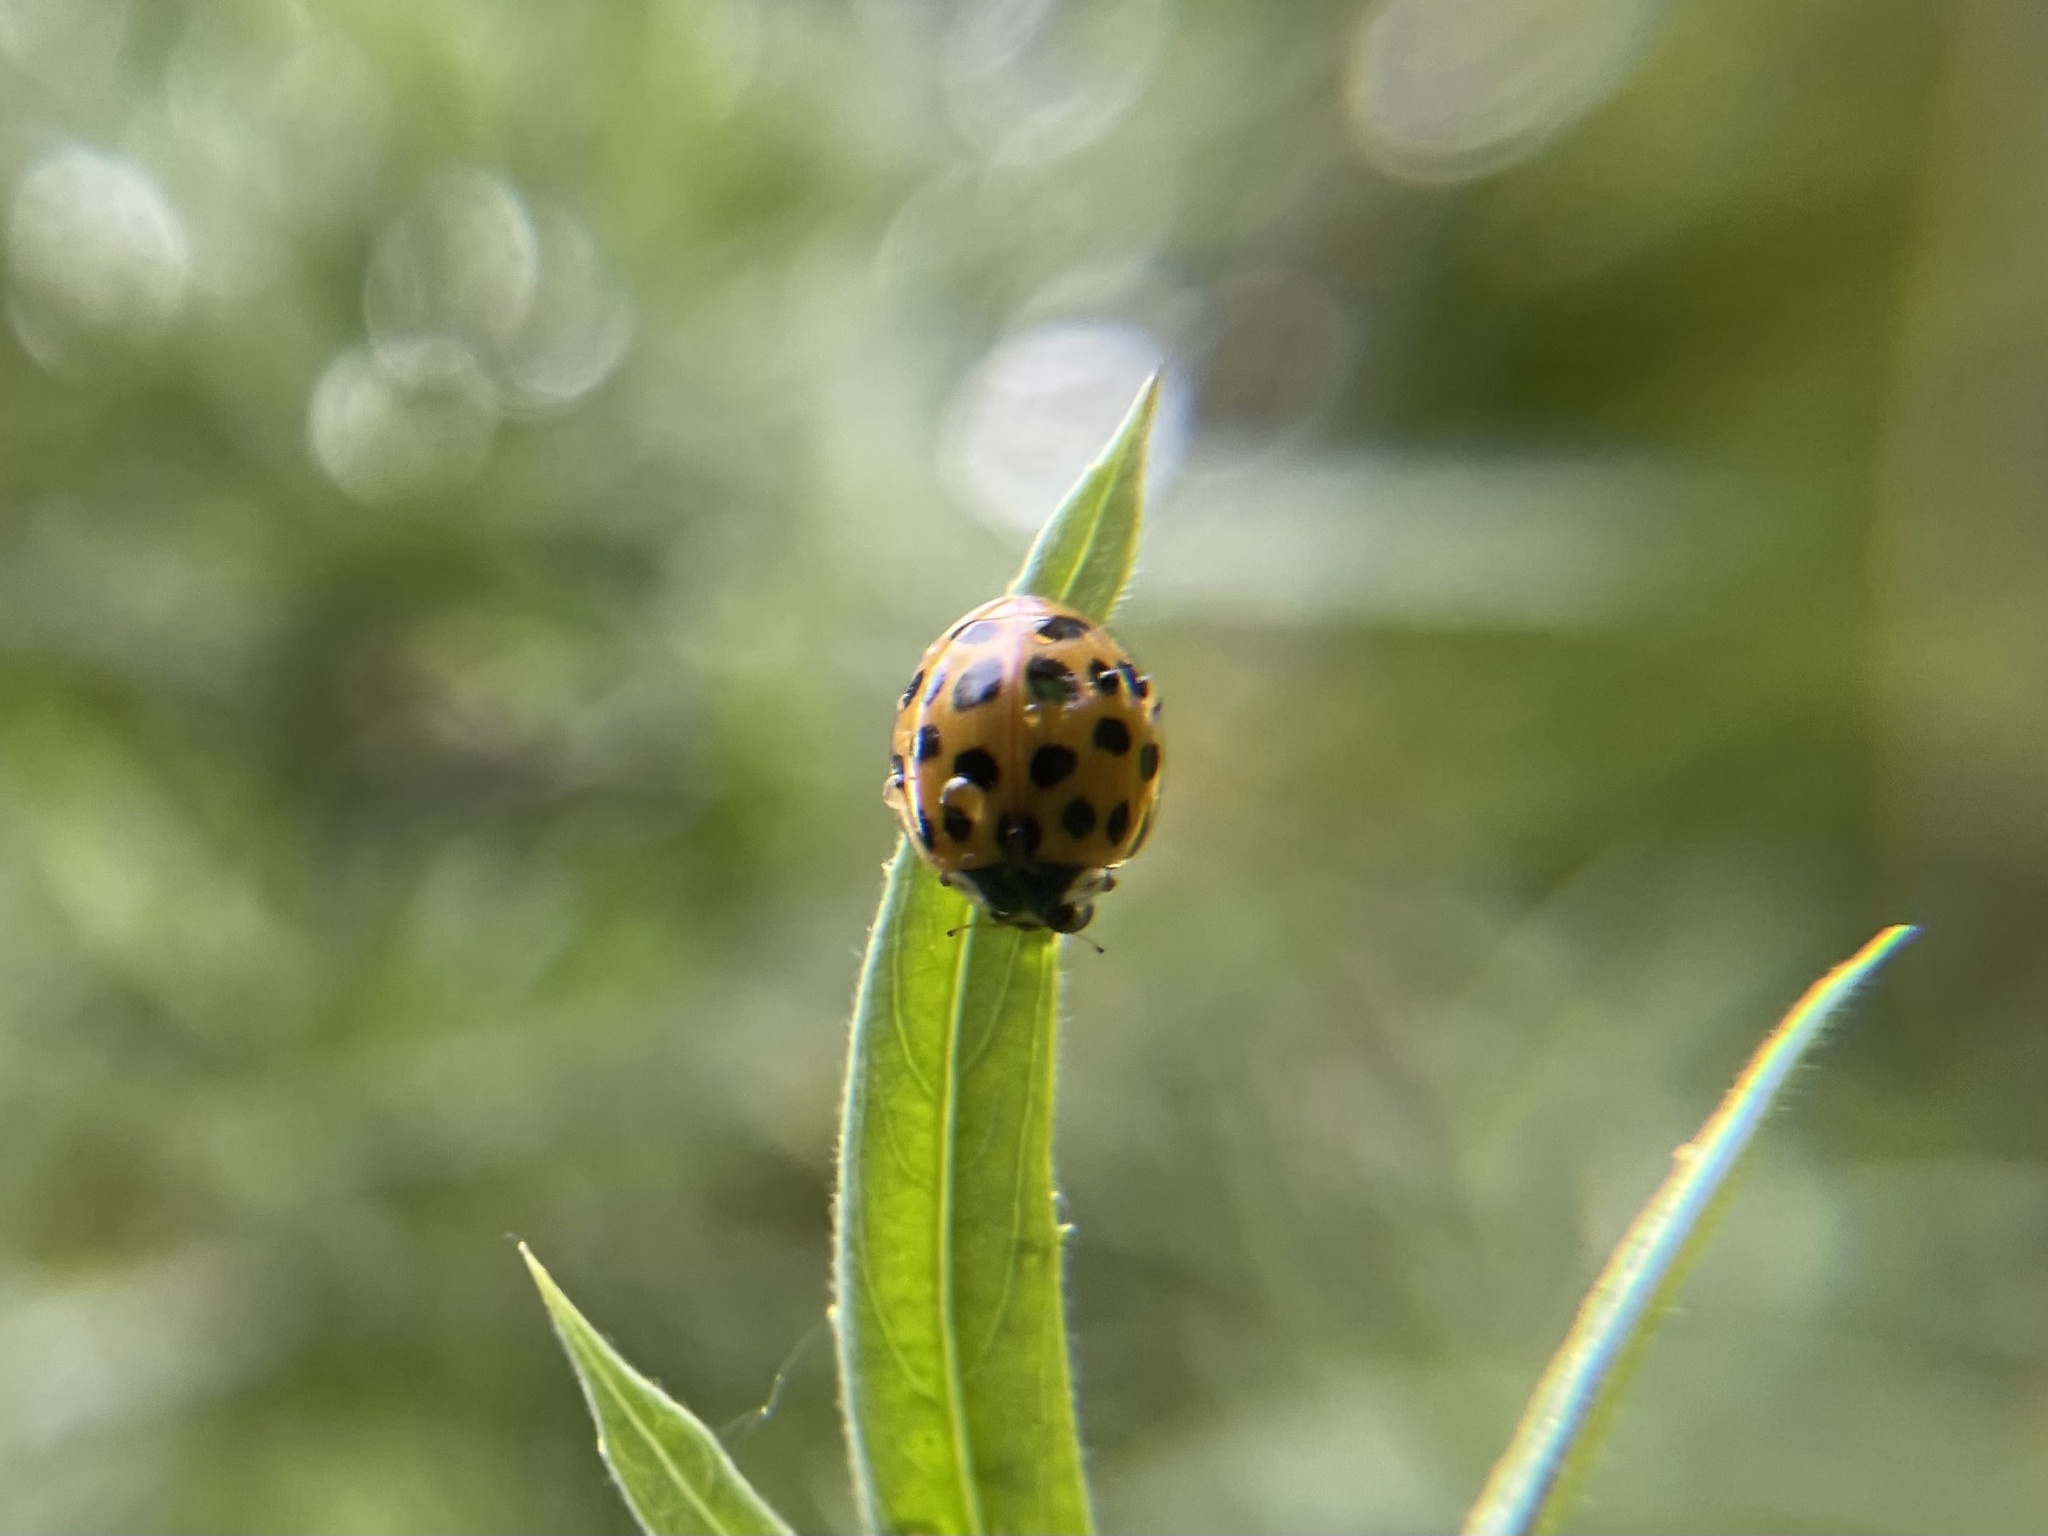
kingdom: Animalia
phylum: Arthropoda
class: Insecta
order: Coleoptera
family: Coccinellidae
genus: Harmonia
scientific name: Harmonia axyridis
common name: Harlequin ladybird
